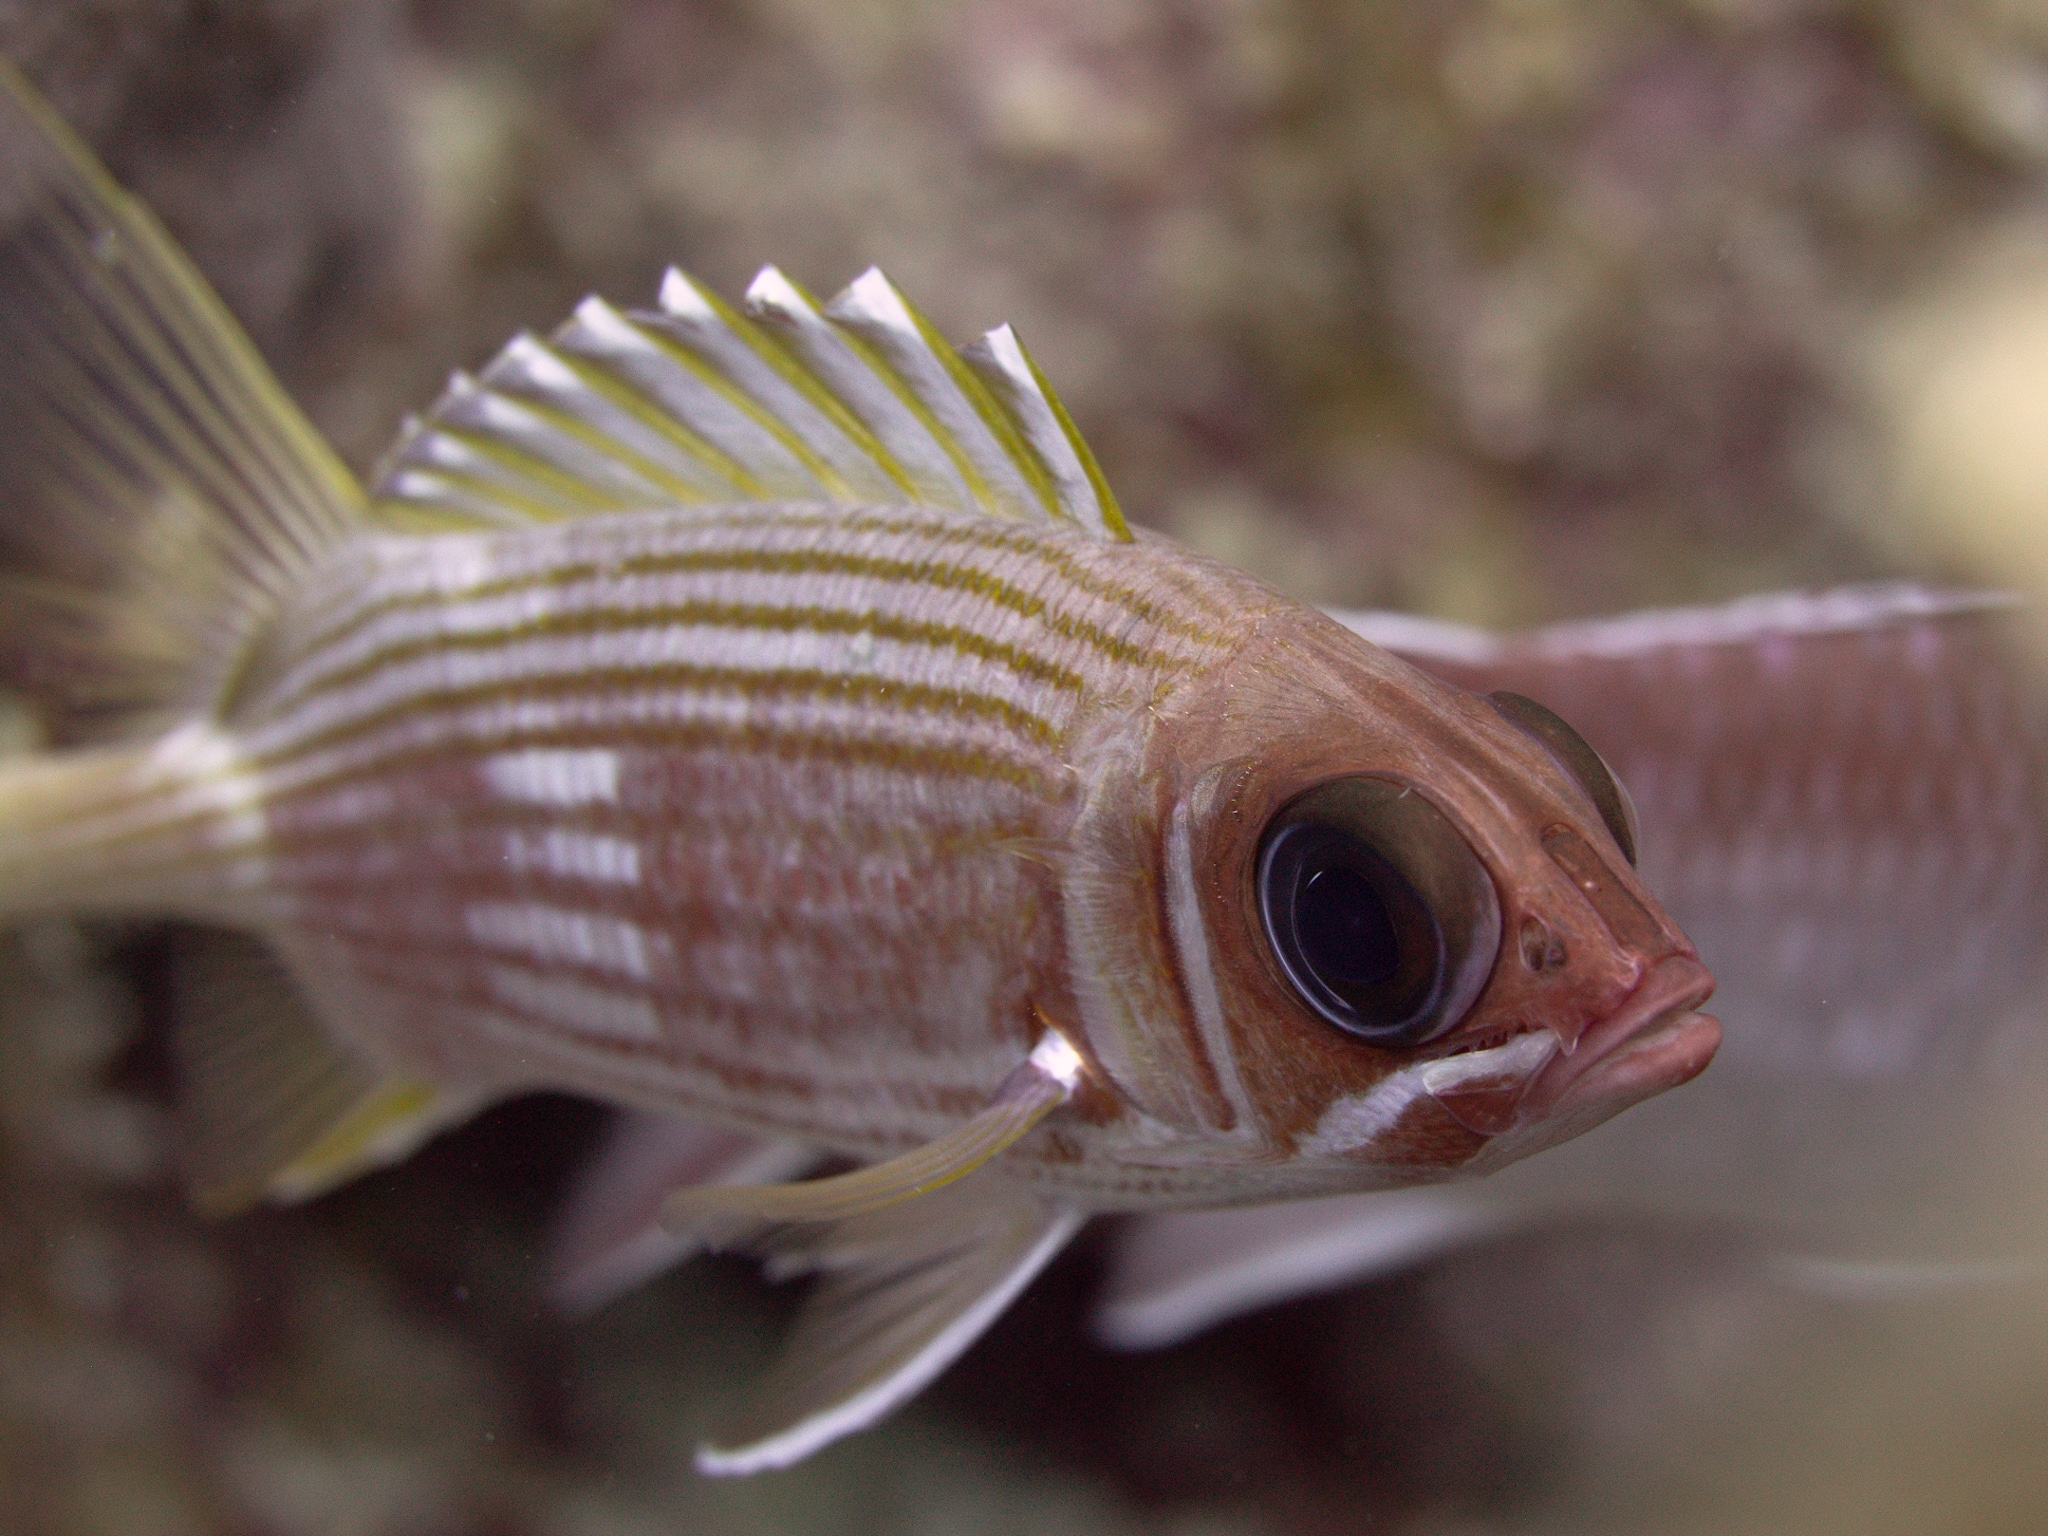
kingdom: Animalia
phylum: Chordata
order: Beryciformes
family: Holocentridae
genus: Holocentrus
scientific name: Holocentrus rufus
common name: Longspine squirrelfish
